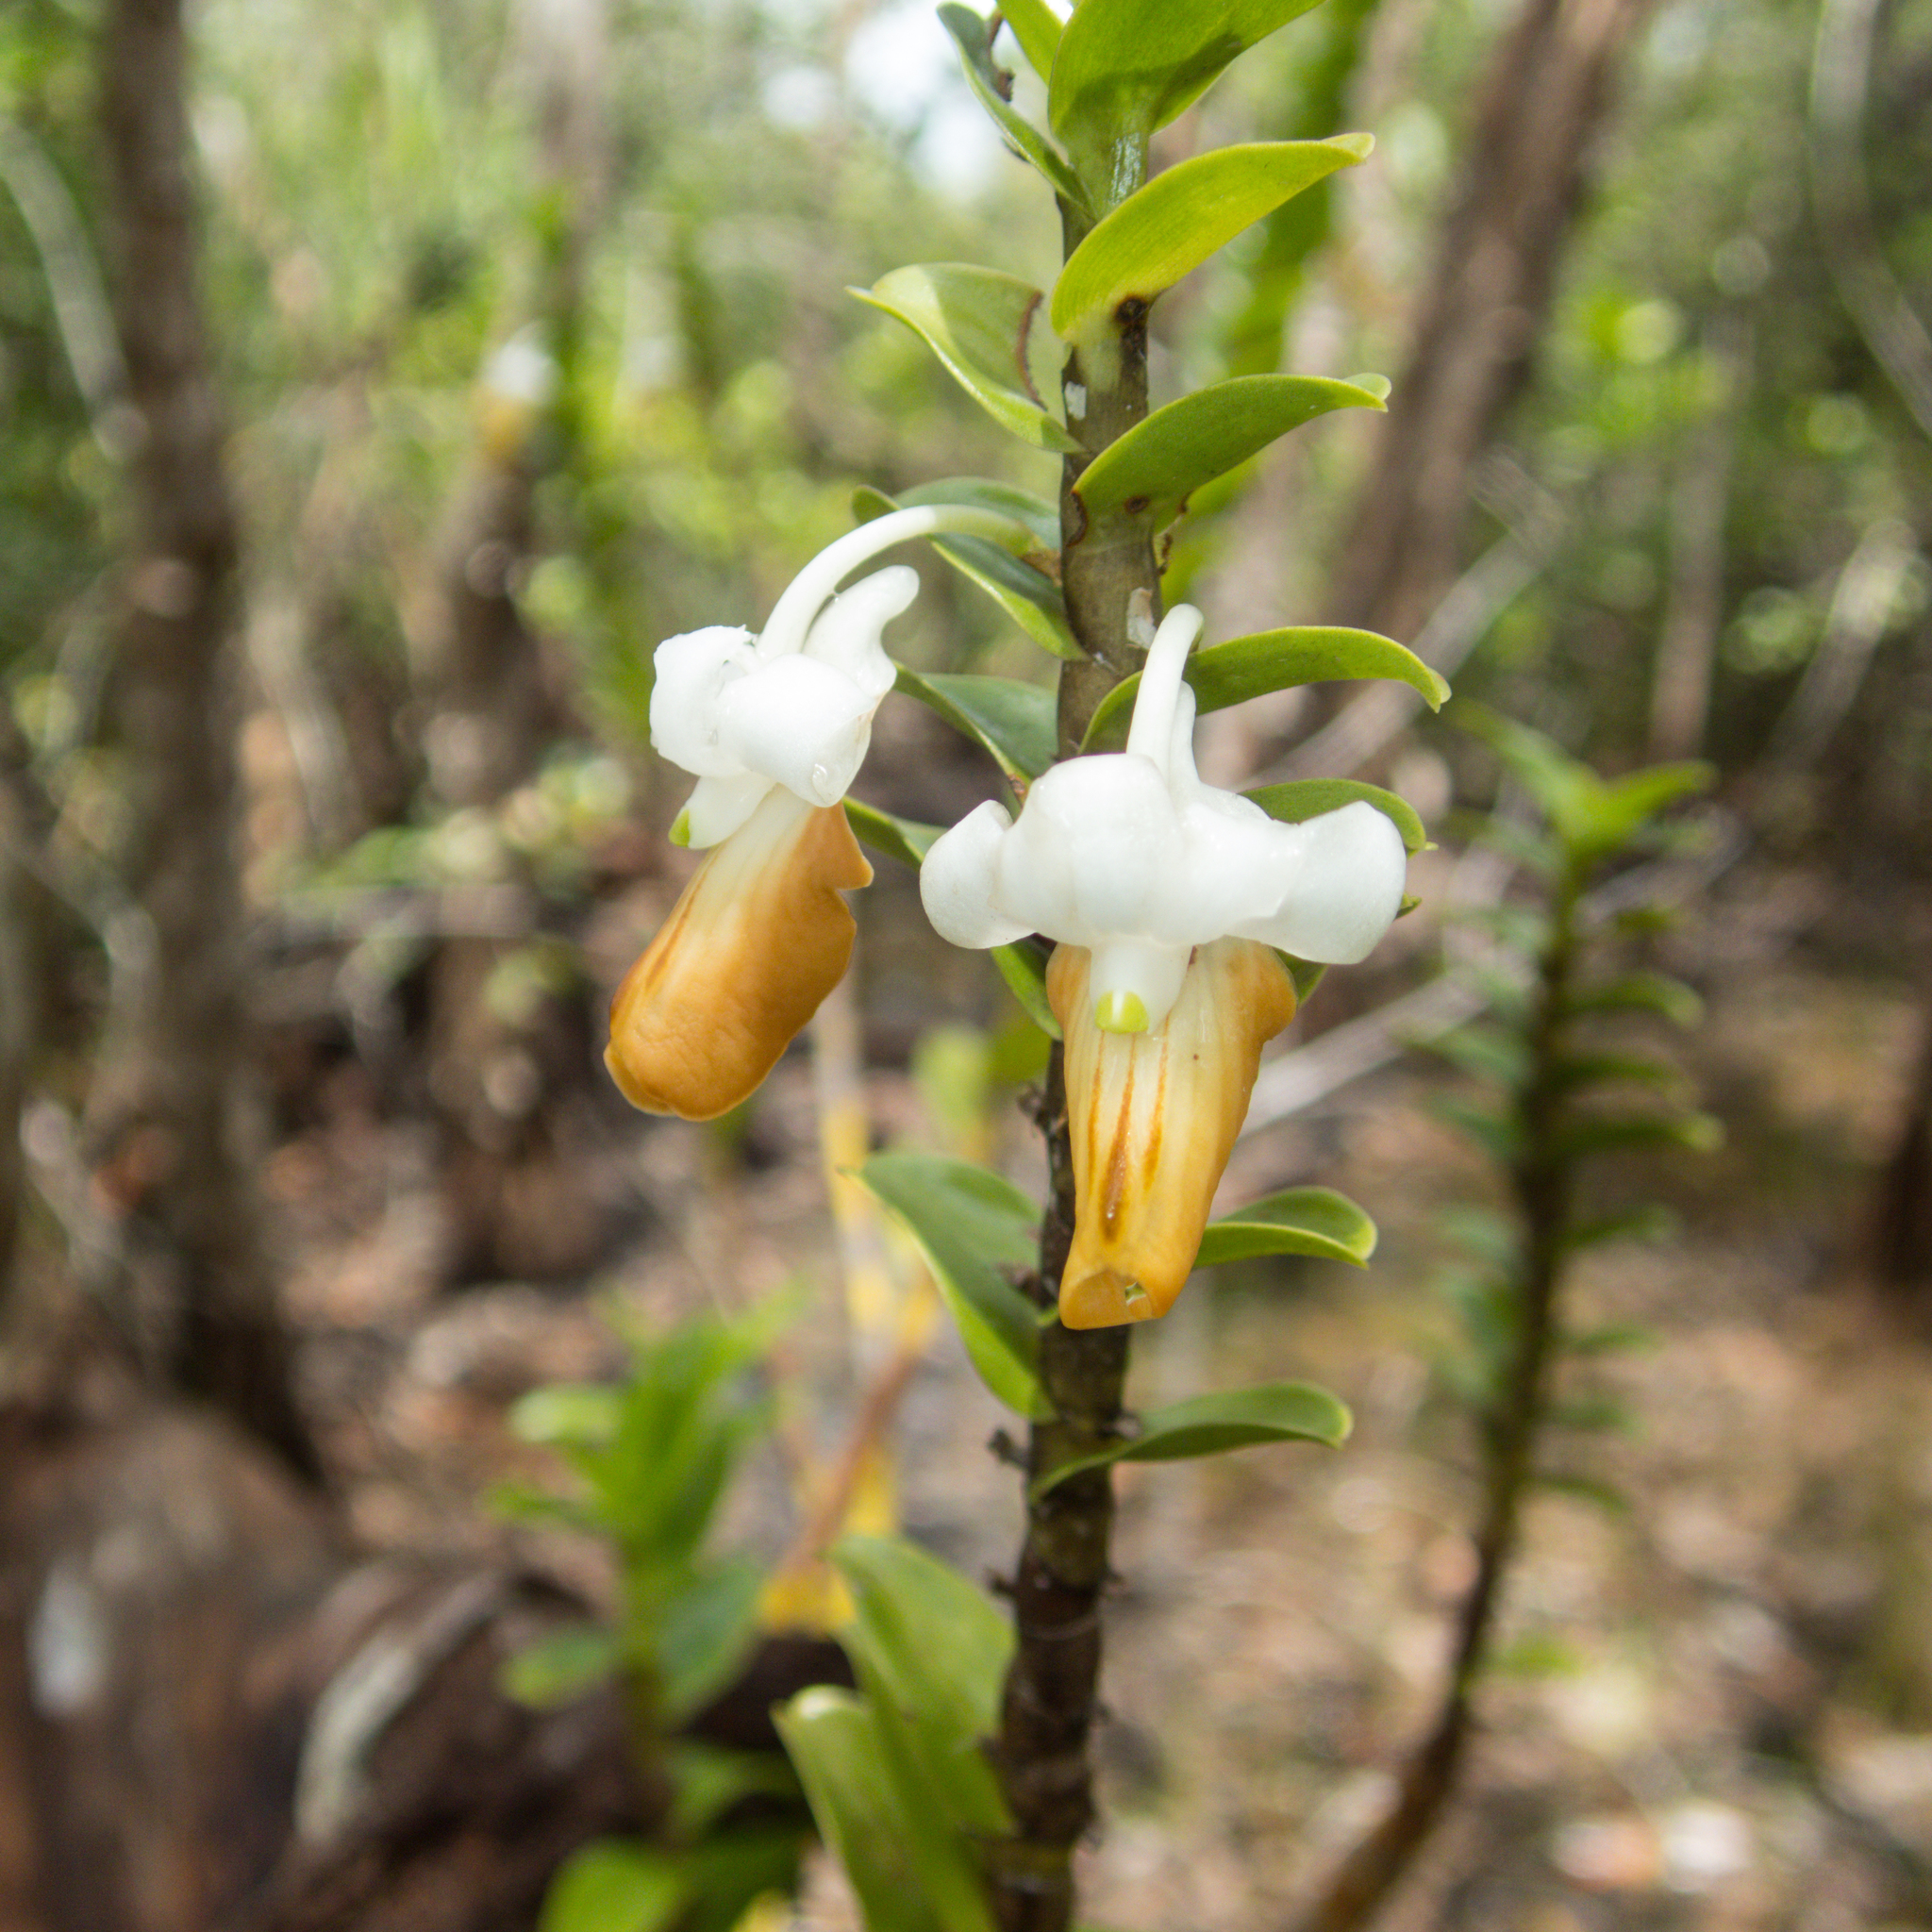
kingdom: Plantae
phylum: Tracheophyta
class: Liliopsida
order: Asparagales
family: Orchidaceae
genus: Dendrobium
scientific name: Dendrobium ellipsophyllum
